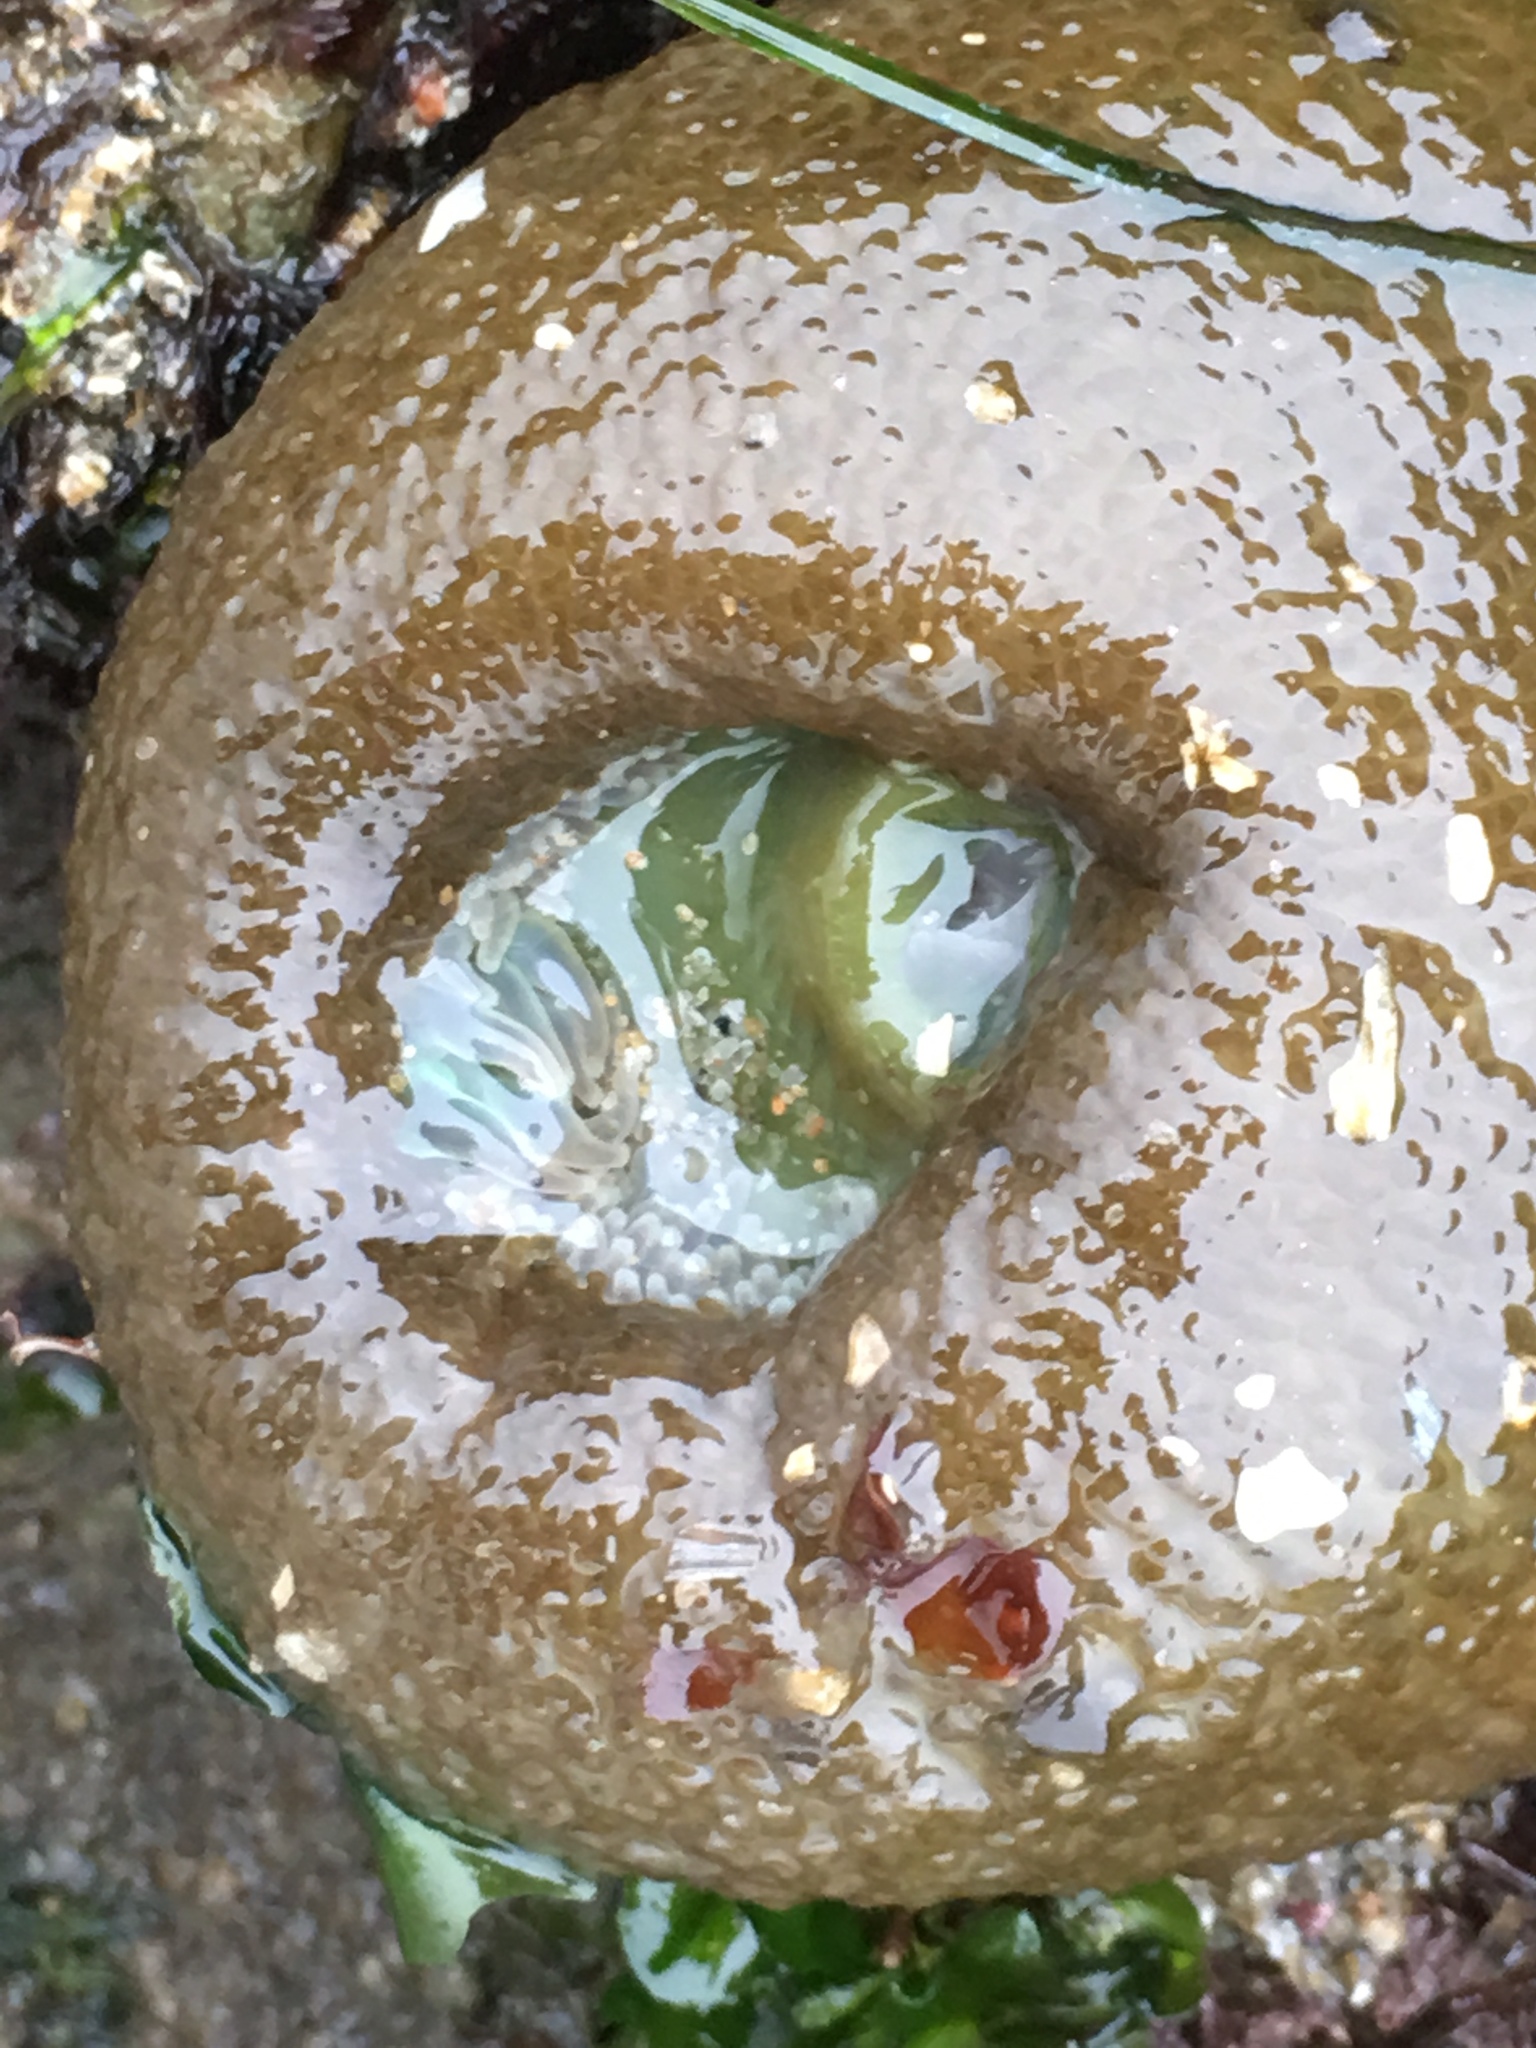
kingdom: Animalia
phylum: Cnidaria
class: Anthozoa
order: Actiniaria
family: Actiniidae
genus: Anthopleura
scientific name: Anthopleura xanthogrammica
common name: Giant green anemone
